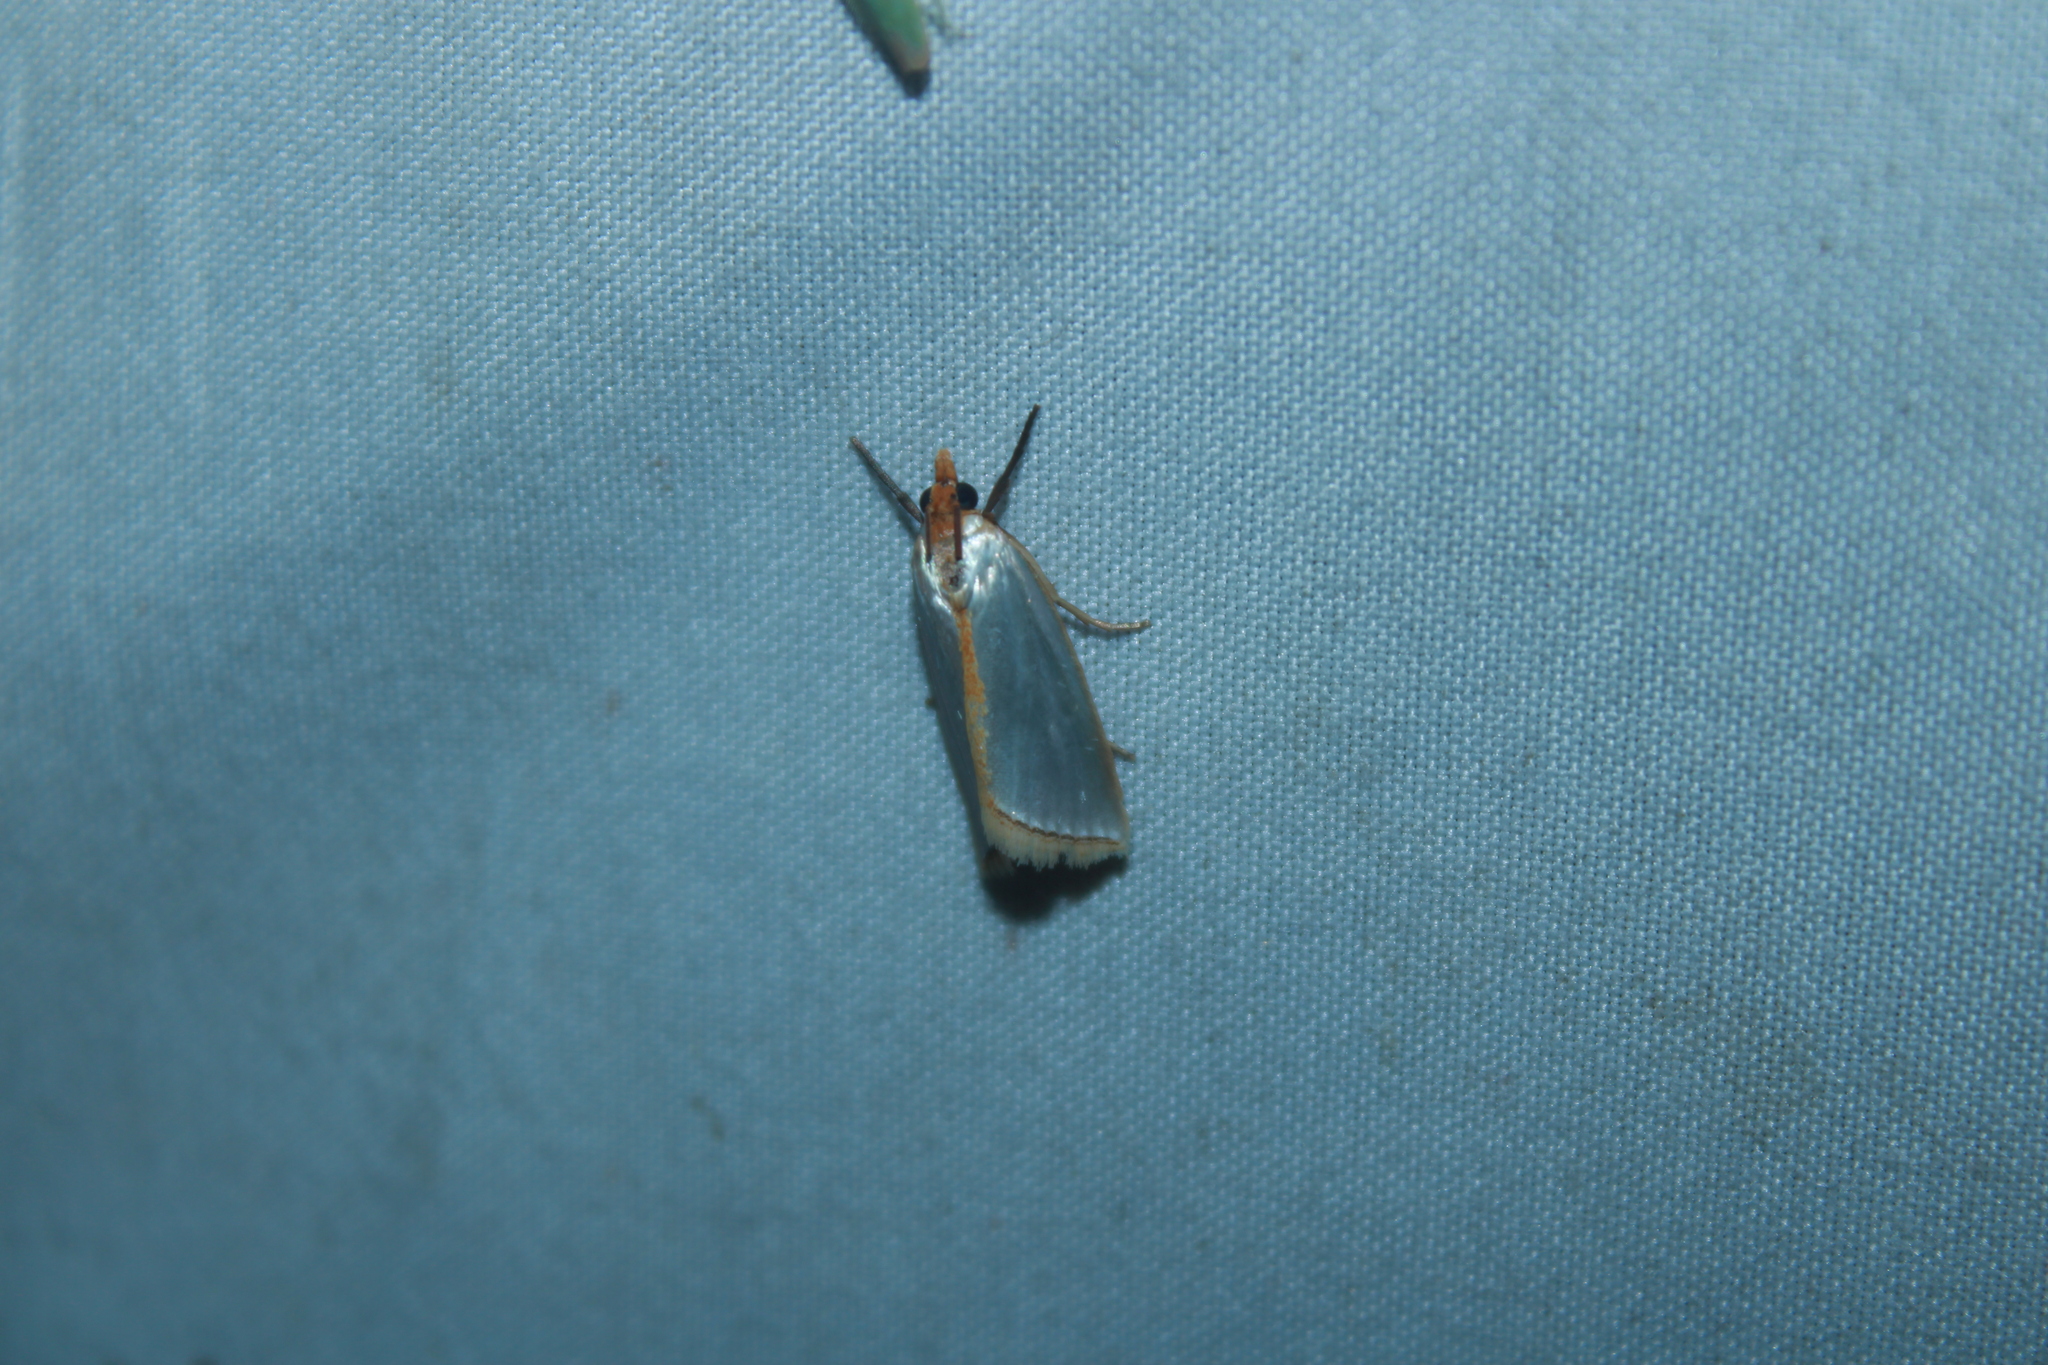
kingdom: Animalia
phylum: Arthropoda
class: Insecta
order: Lepidoptera
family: Crambidae
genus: Argyria
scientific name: Argyria
